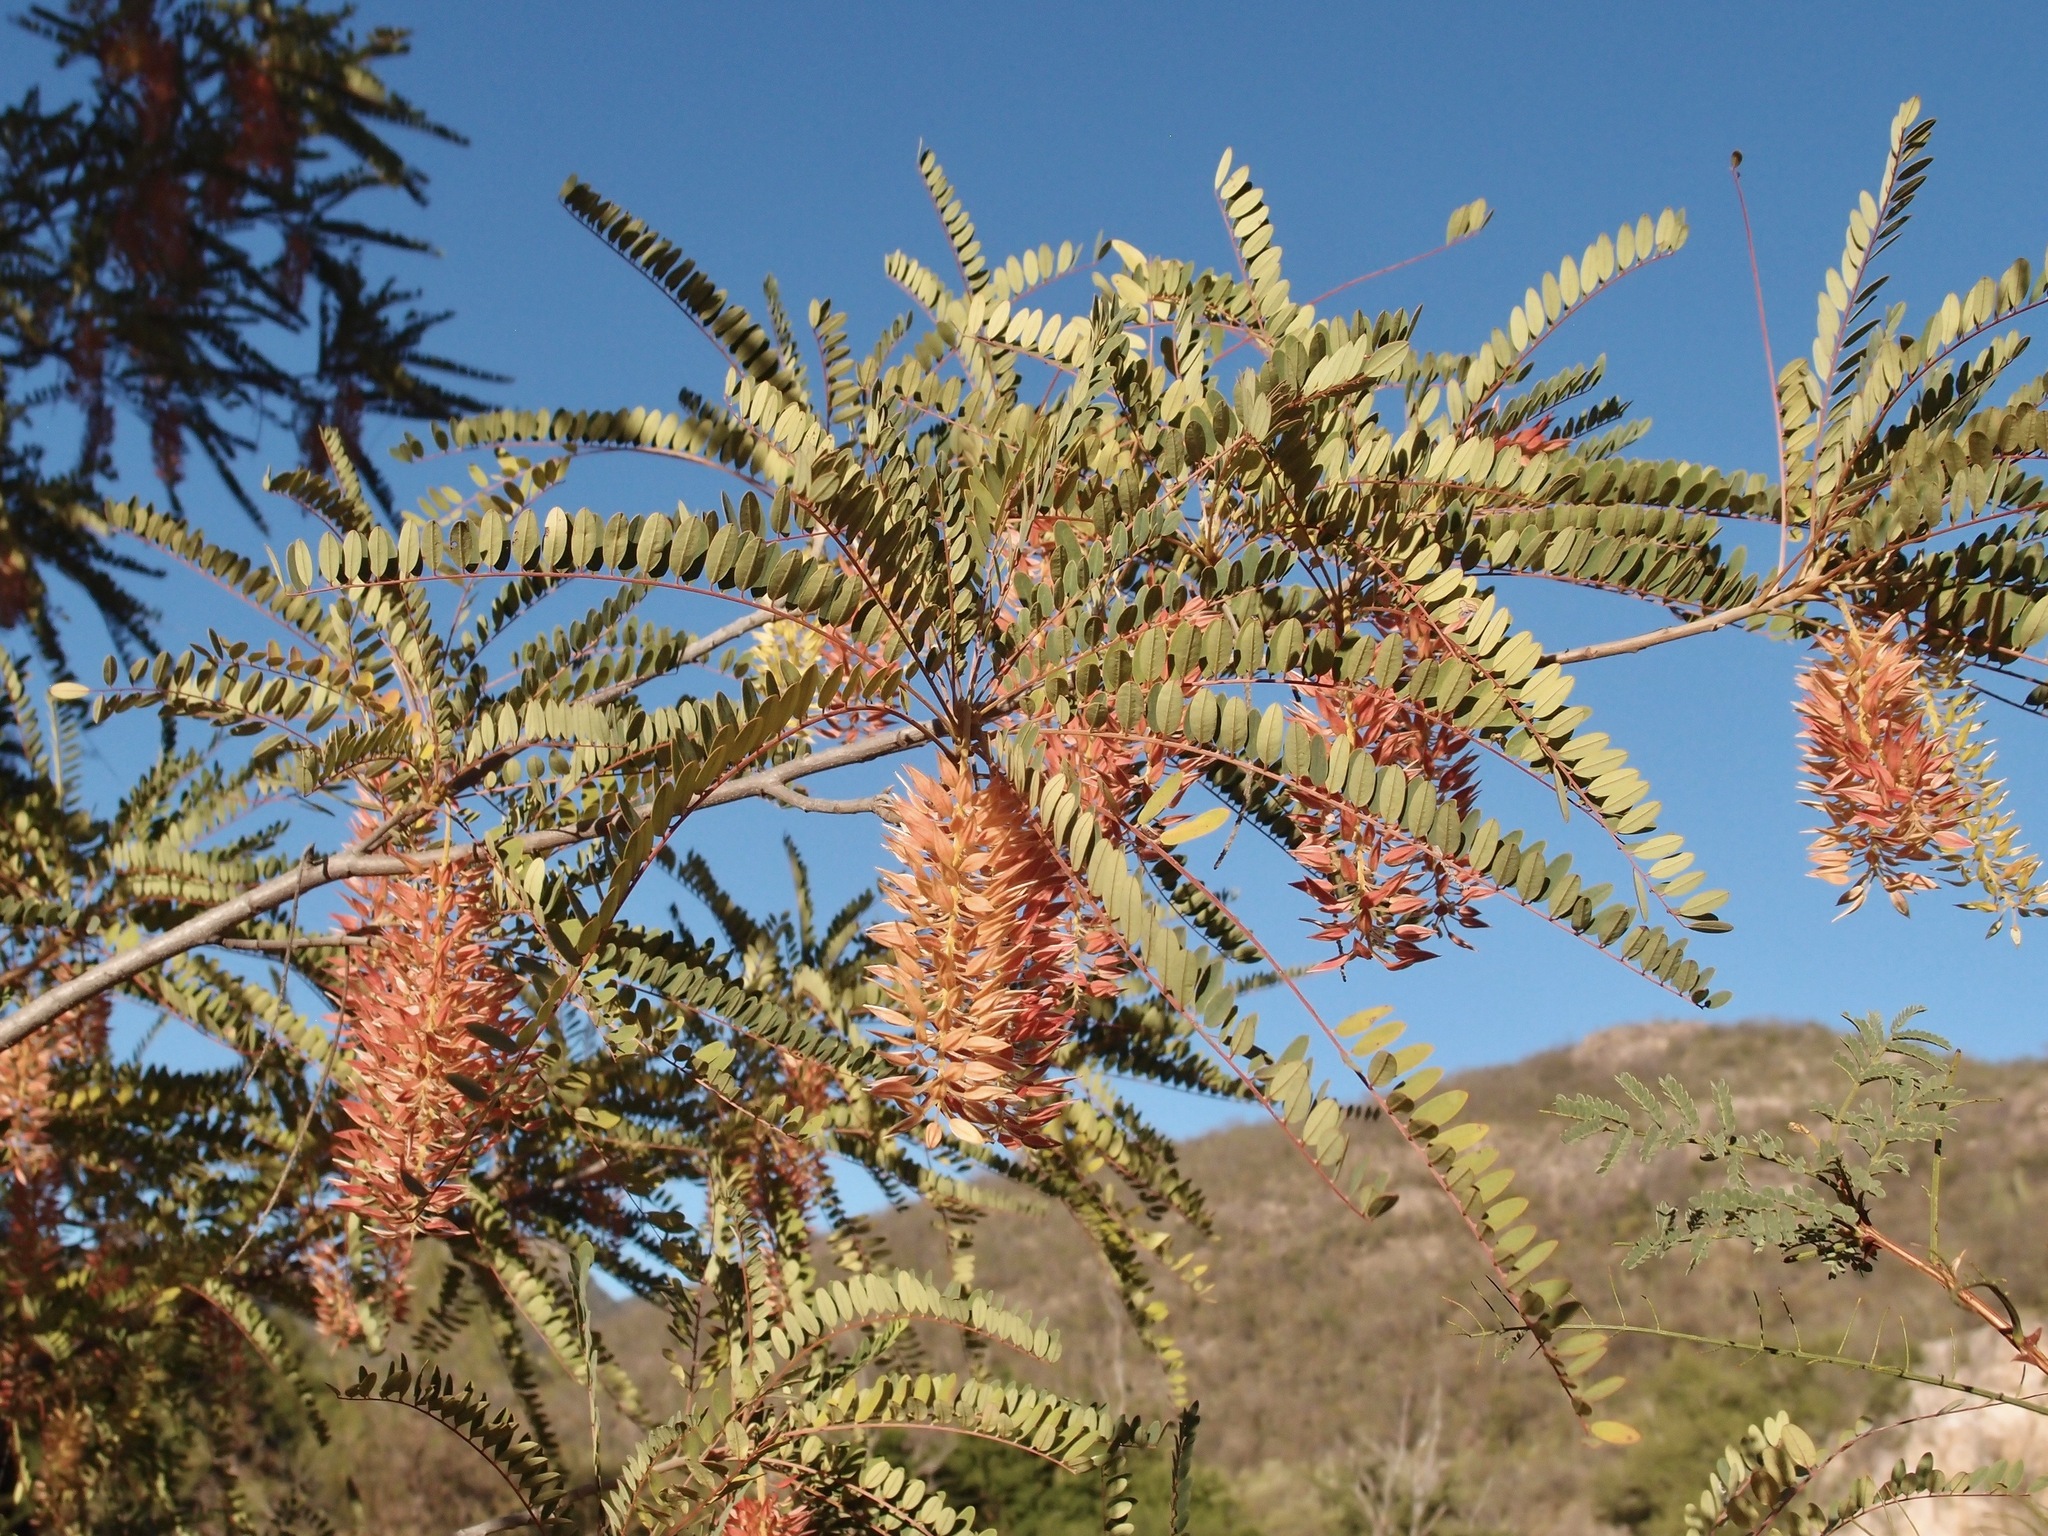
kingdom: Plantae
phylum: Tracheophyta
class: Magnoliopsida
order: Picramniales
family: Picramniaceae
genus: Alvaradoa
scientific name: Alvaradoa amorphoides
